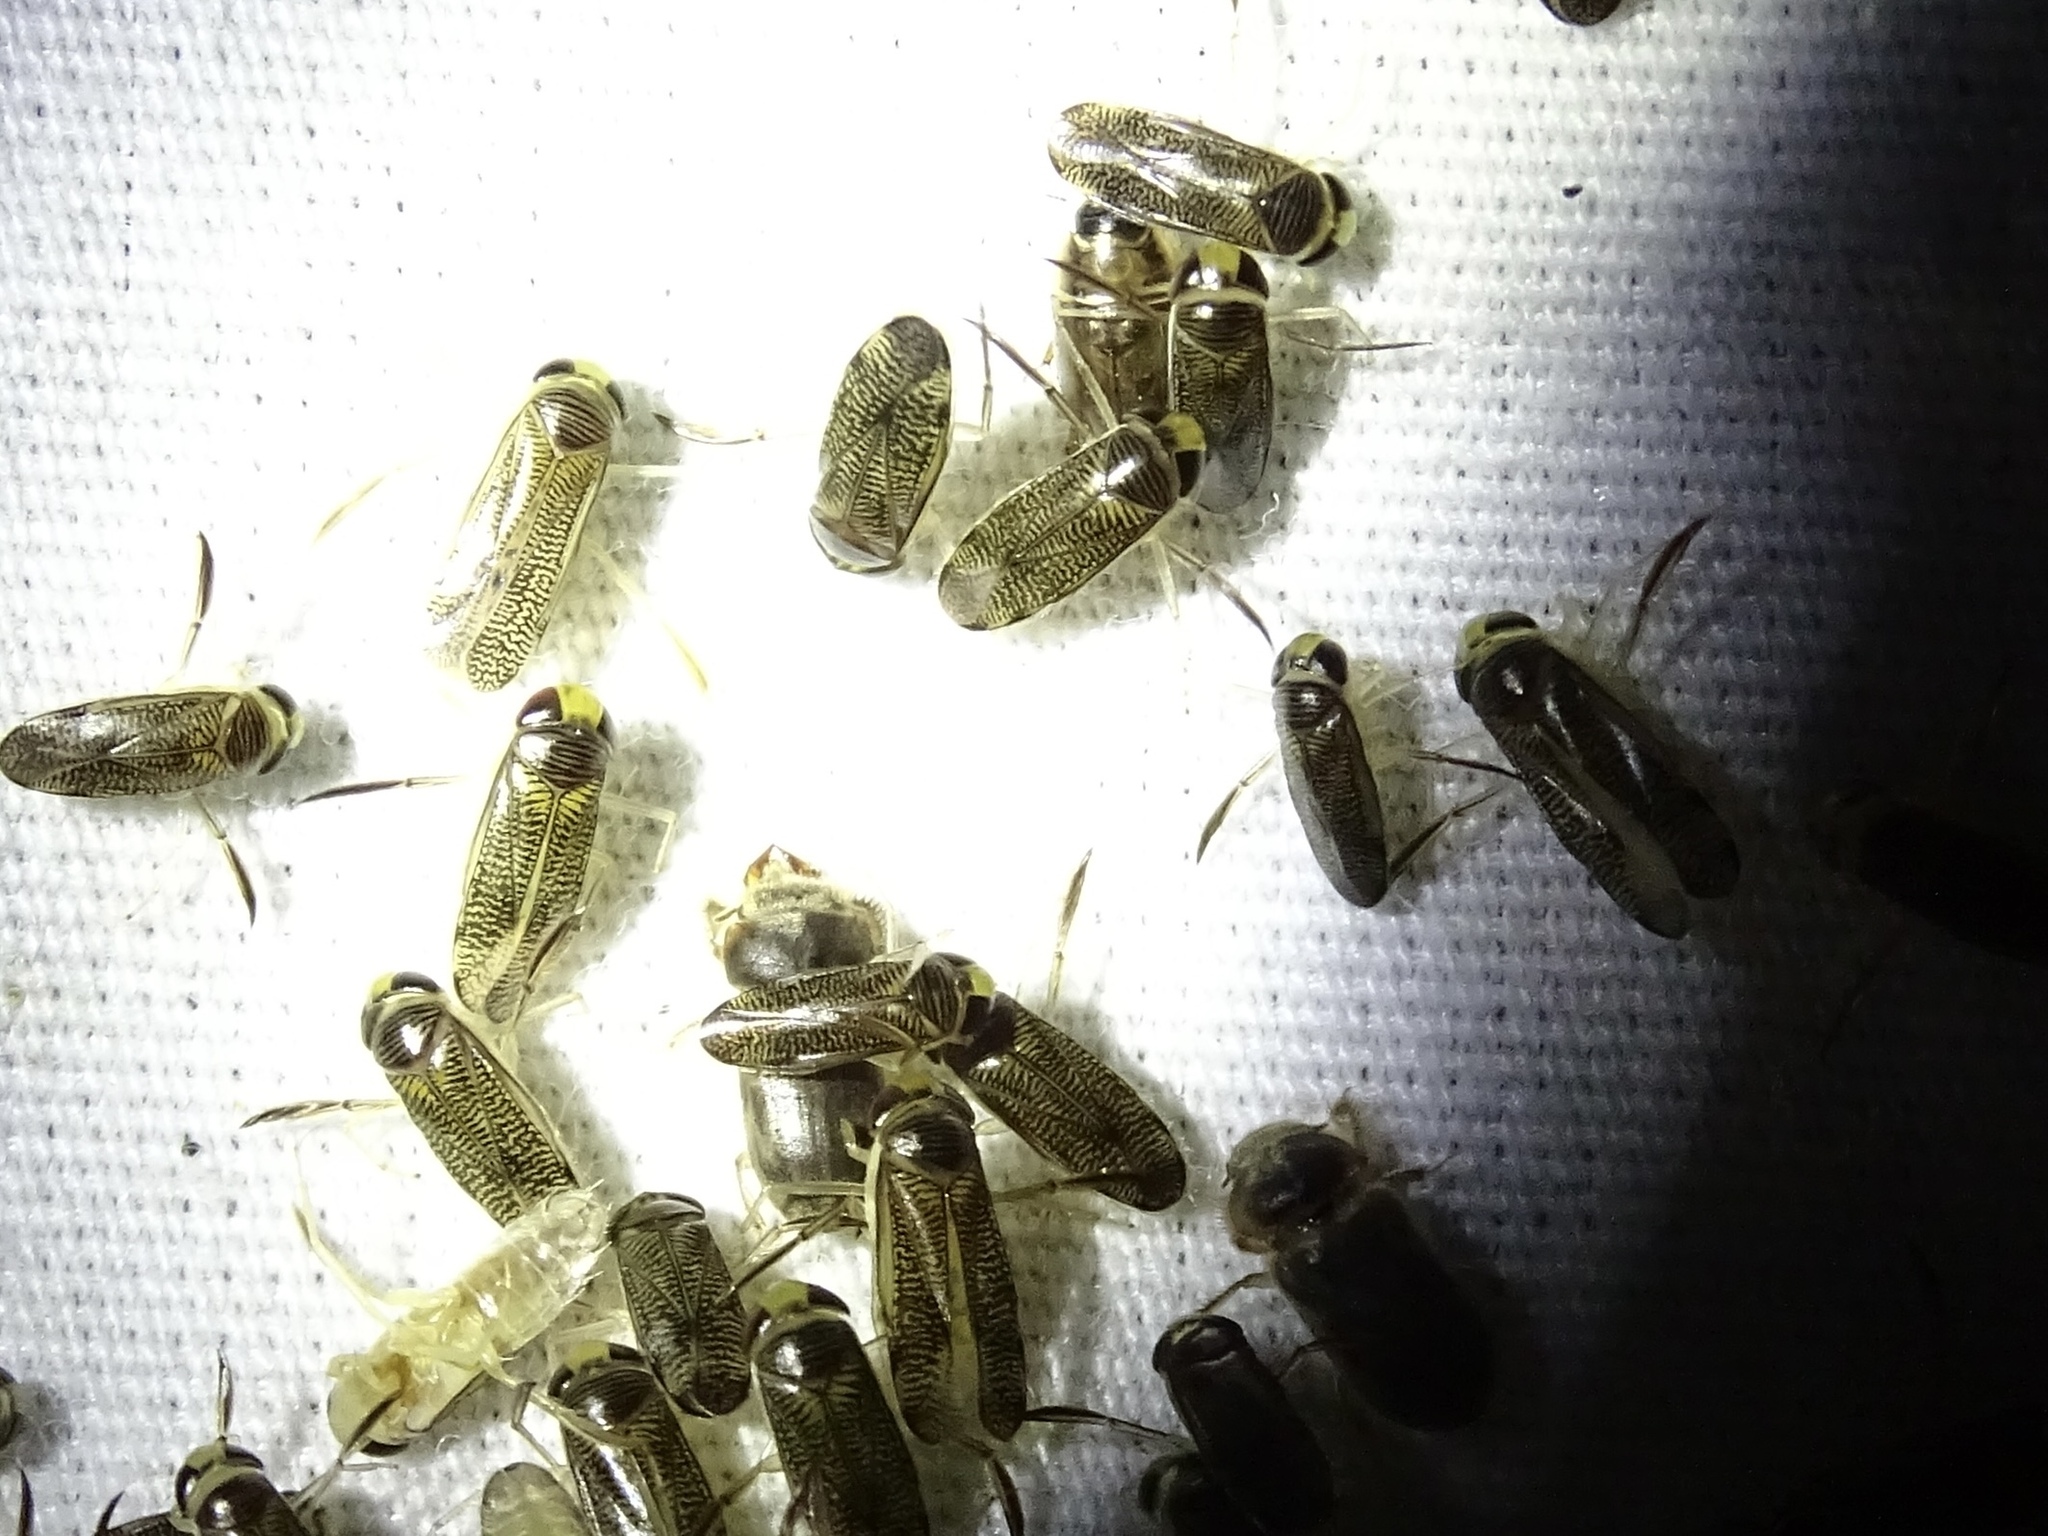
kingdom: Animalia
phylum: Arthropoda
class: Insecta
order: Hemiptera
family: Corixidae
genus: Trichocorixa
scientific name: Trichocorixa
